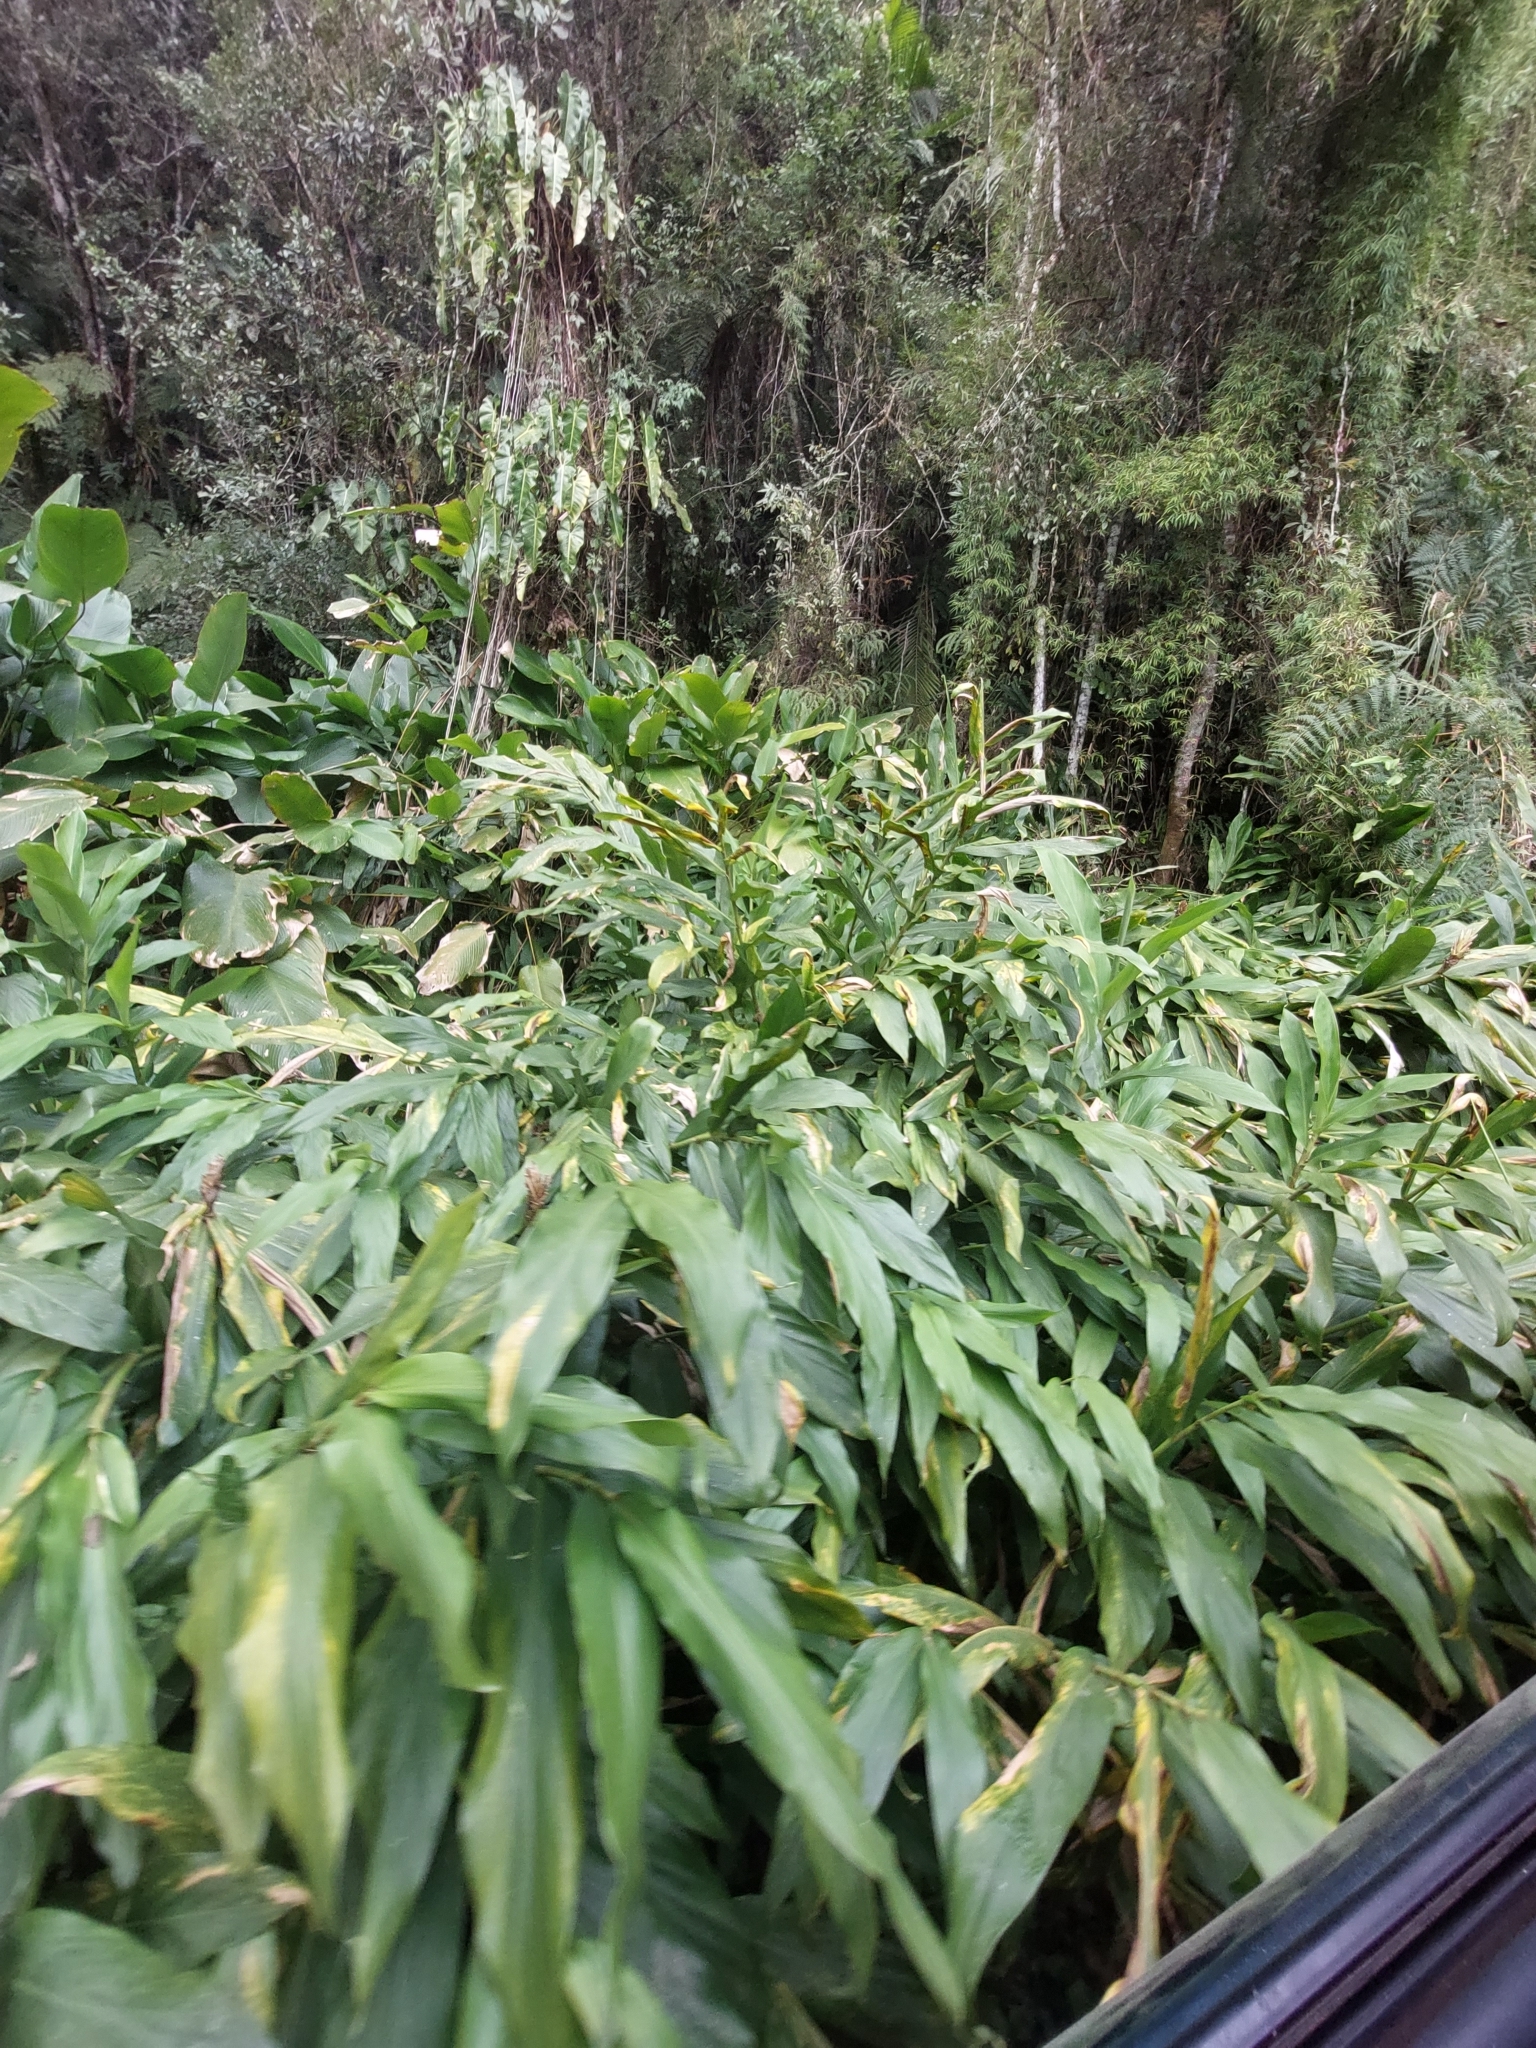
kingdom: Plantae
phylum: Tracheophyta
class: Liliopsida
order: Zingiberales
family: Zingiberaceae
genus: Hedychium
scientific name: Hedychium coronarium
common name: White garland-lily
